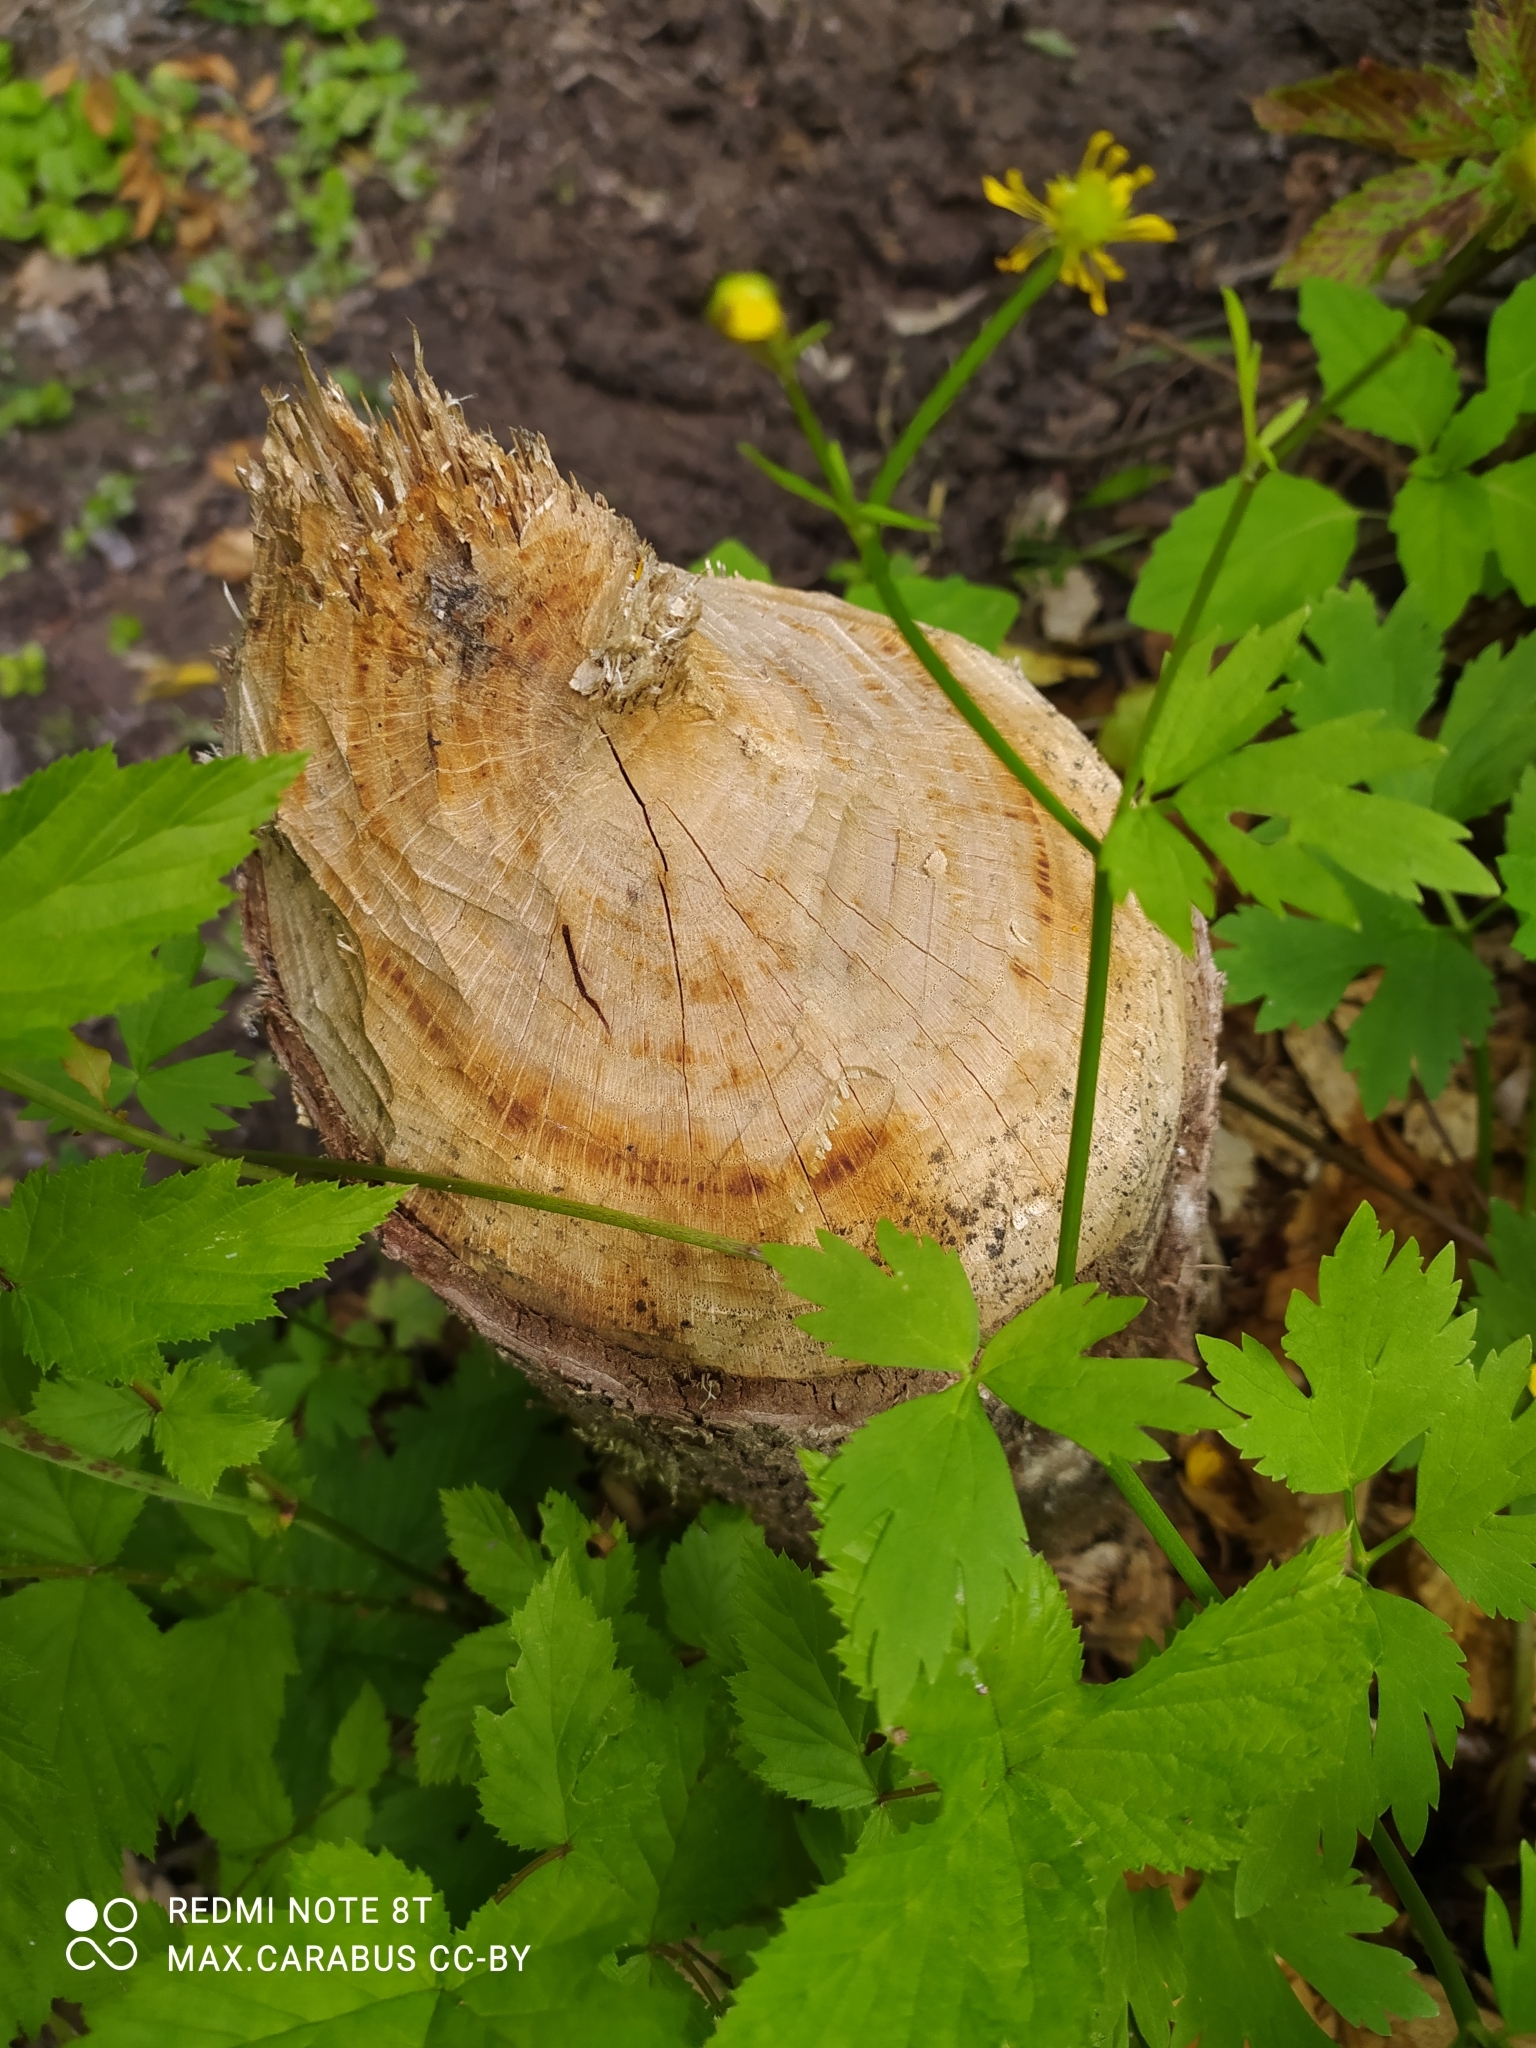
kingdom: Animalia
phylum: Chordata
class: Mammalia
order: Rodentia
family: Castoridae
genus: Castor
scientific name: Castor fiber
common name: Eurasian beaver
